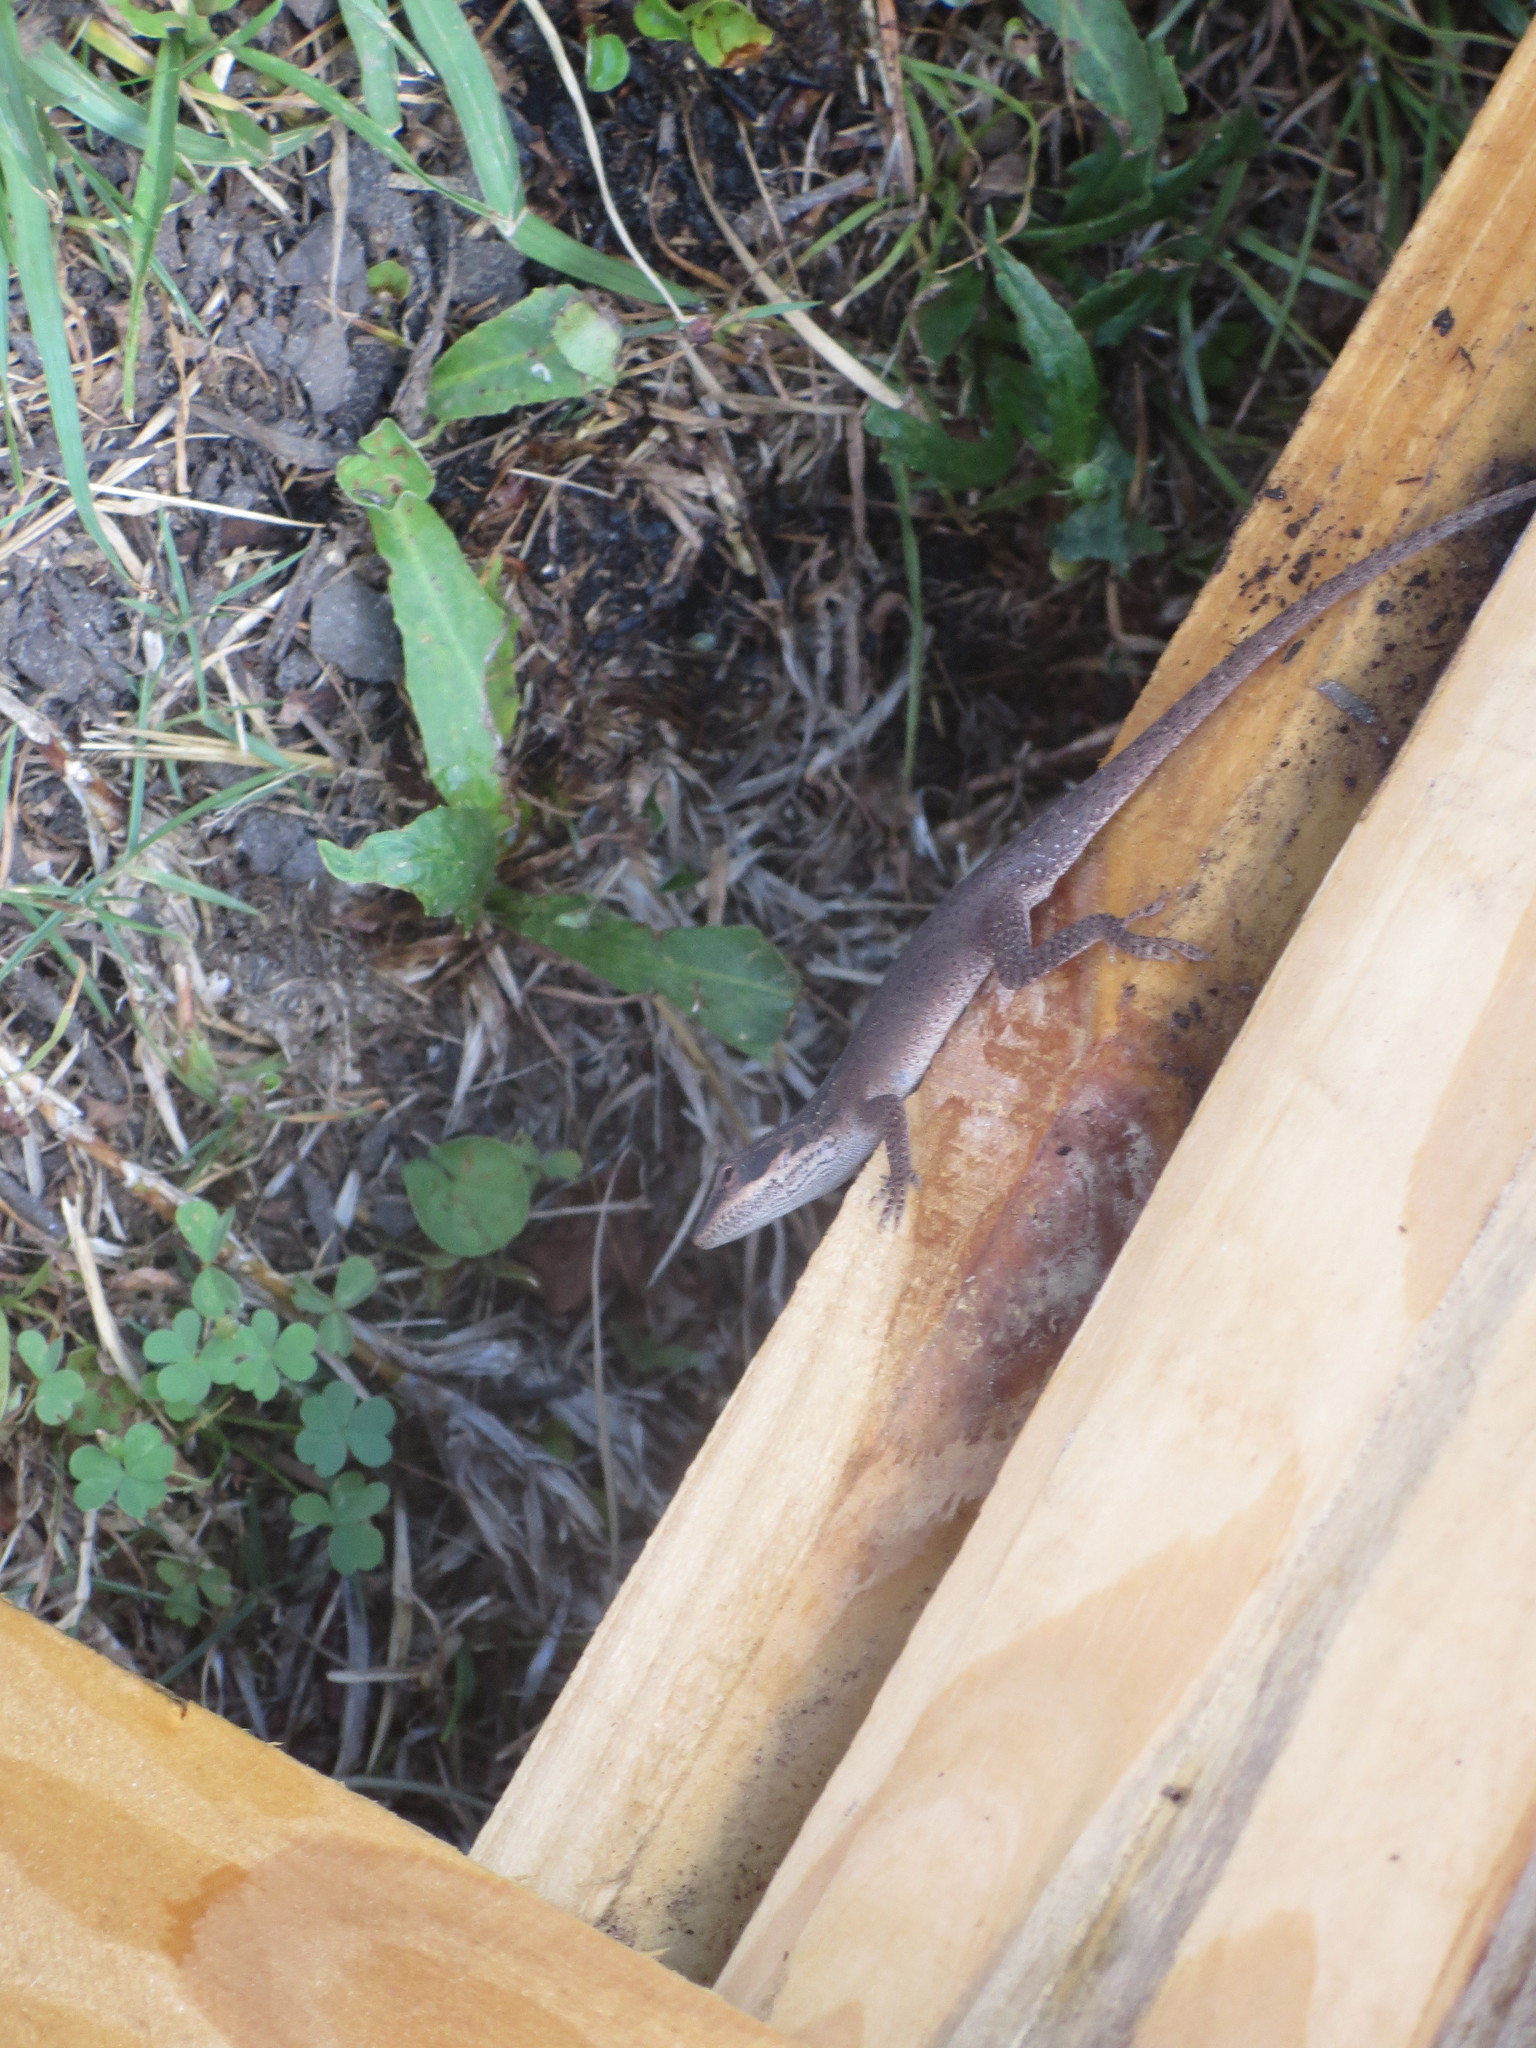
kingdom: Animalia
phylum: Chordata
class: Squamata
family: Dactyloidae
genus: Anolis
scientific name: Anolis carolinensis
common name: Green anole
